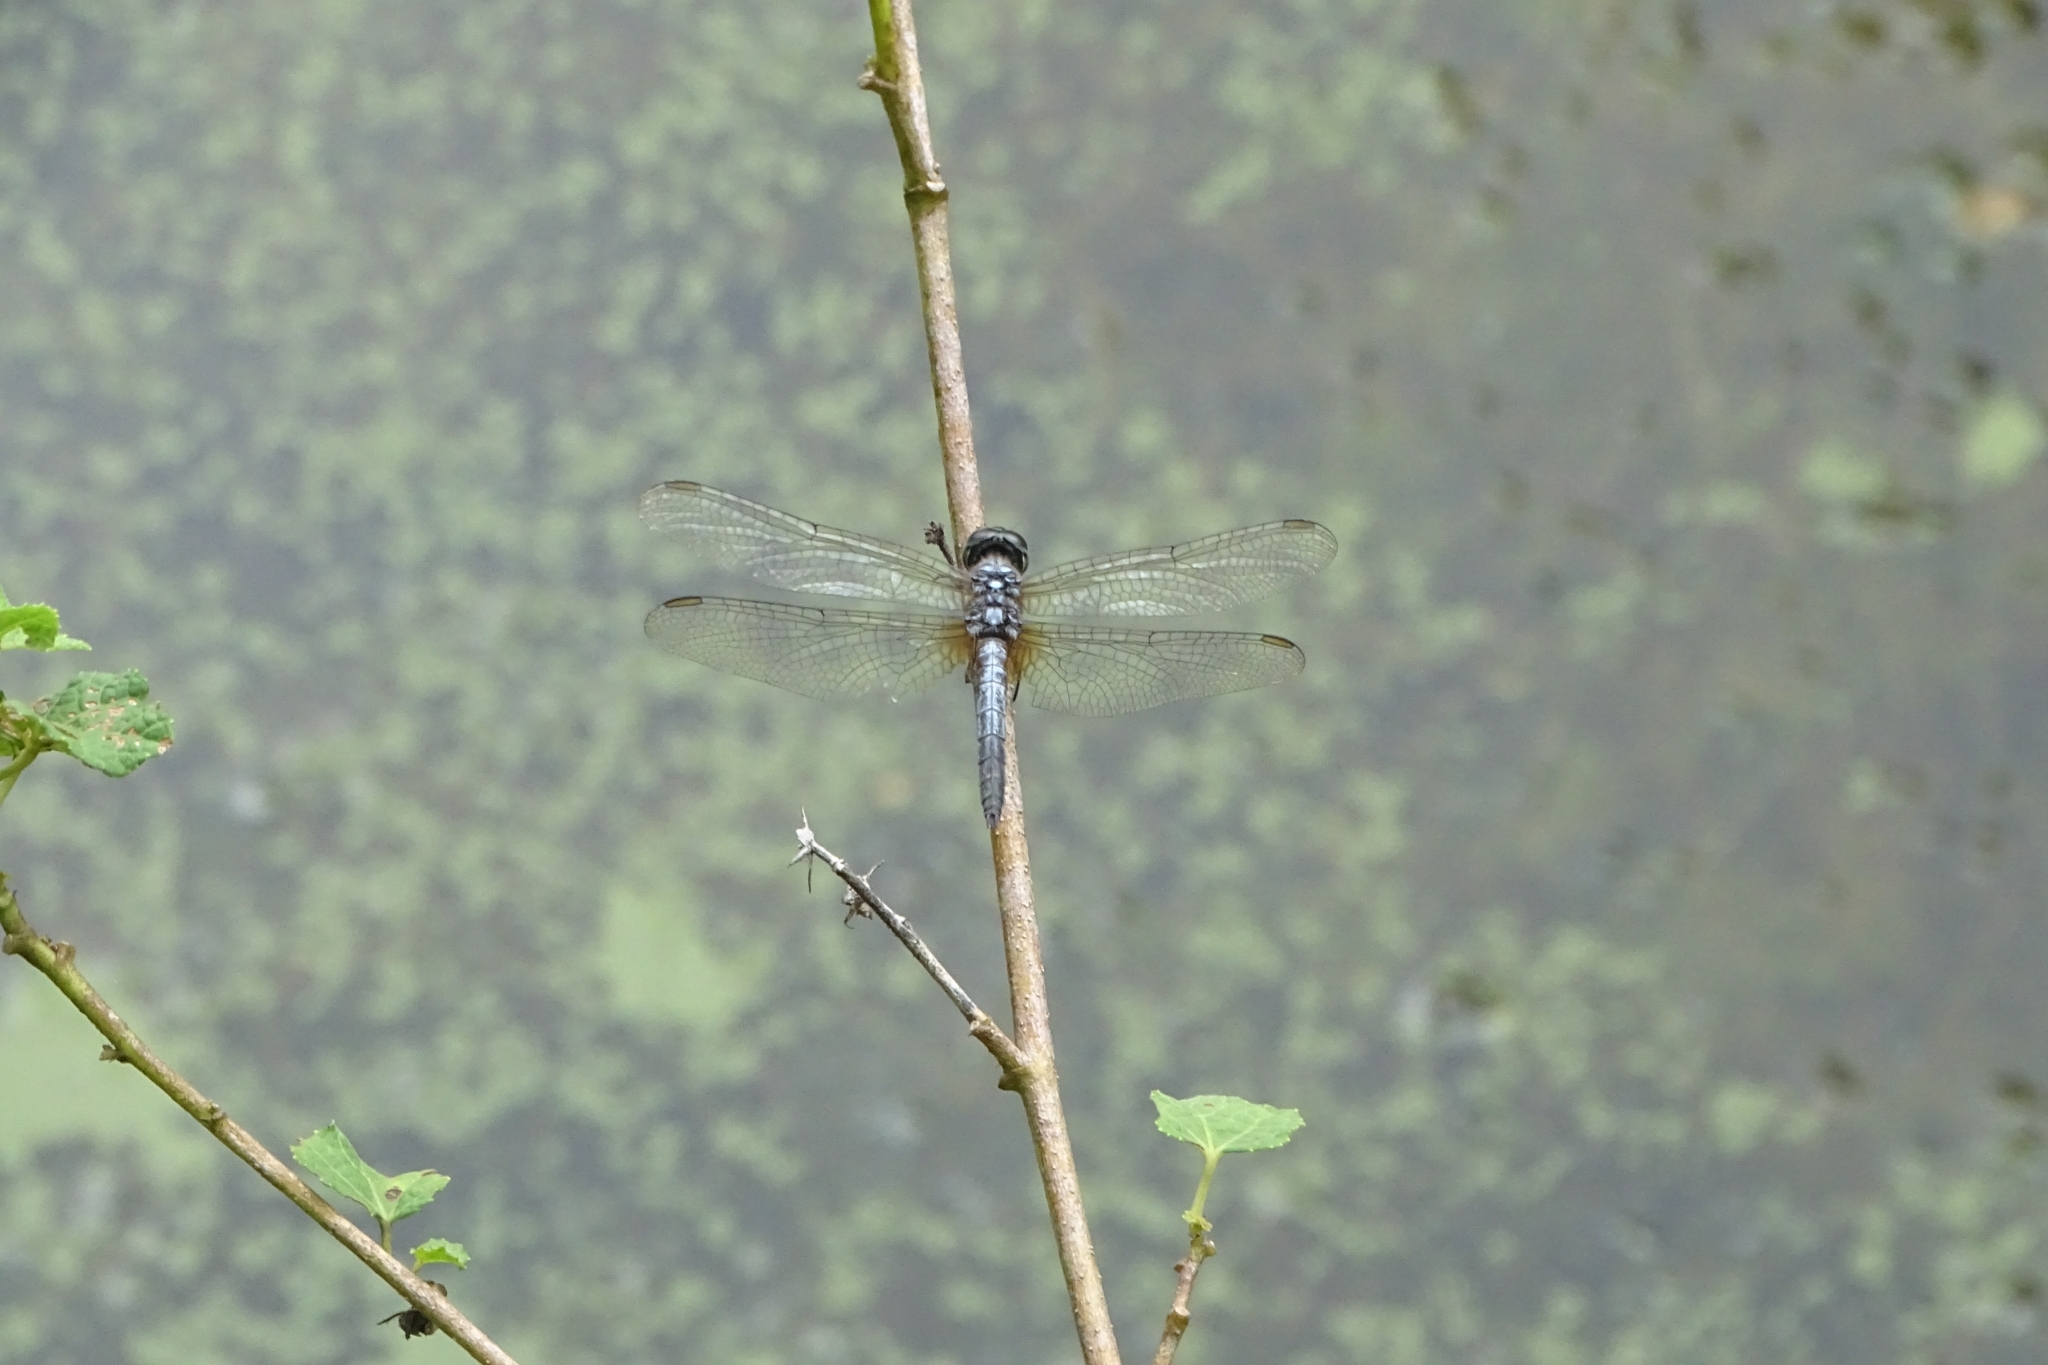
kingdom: Animalia
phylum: Arthropoda
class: Insecta
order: Odonata
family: Libellulidae
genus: Brachydiplax
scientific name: Brachydiplax chalybea
